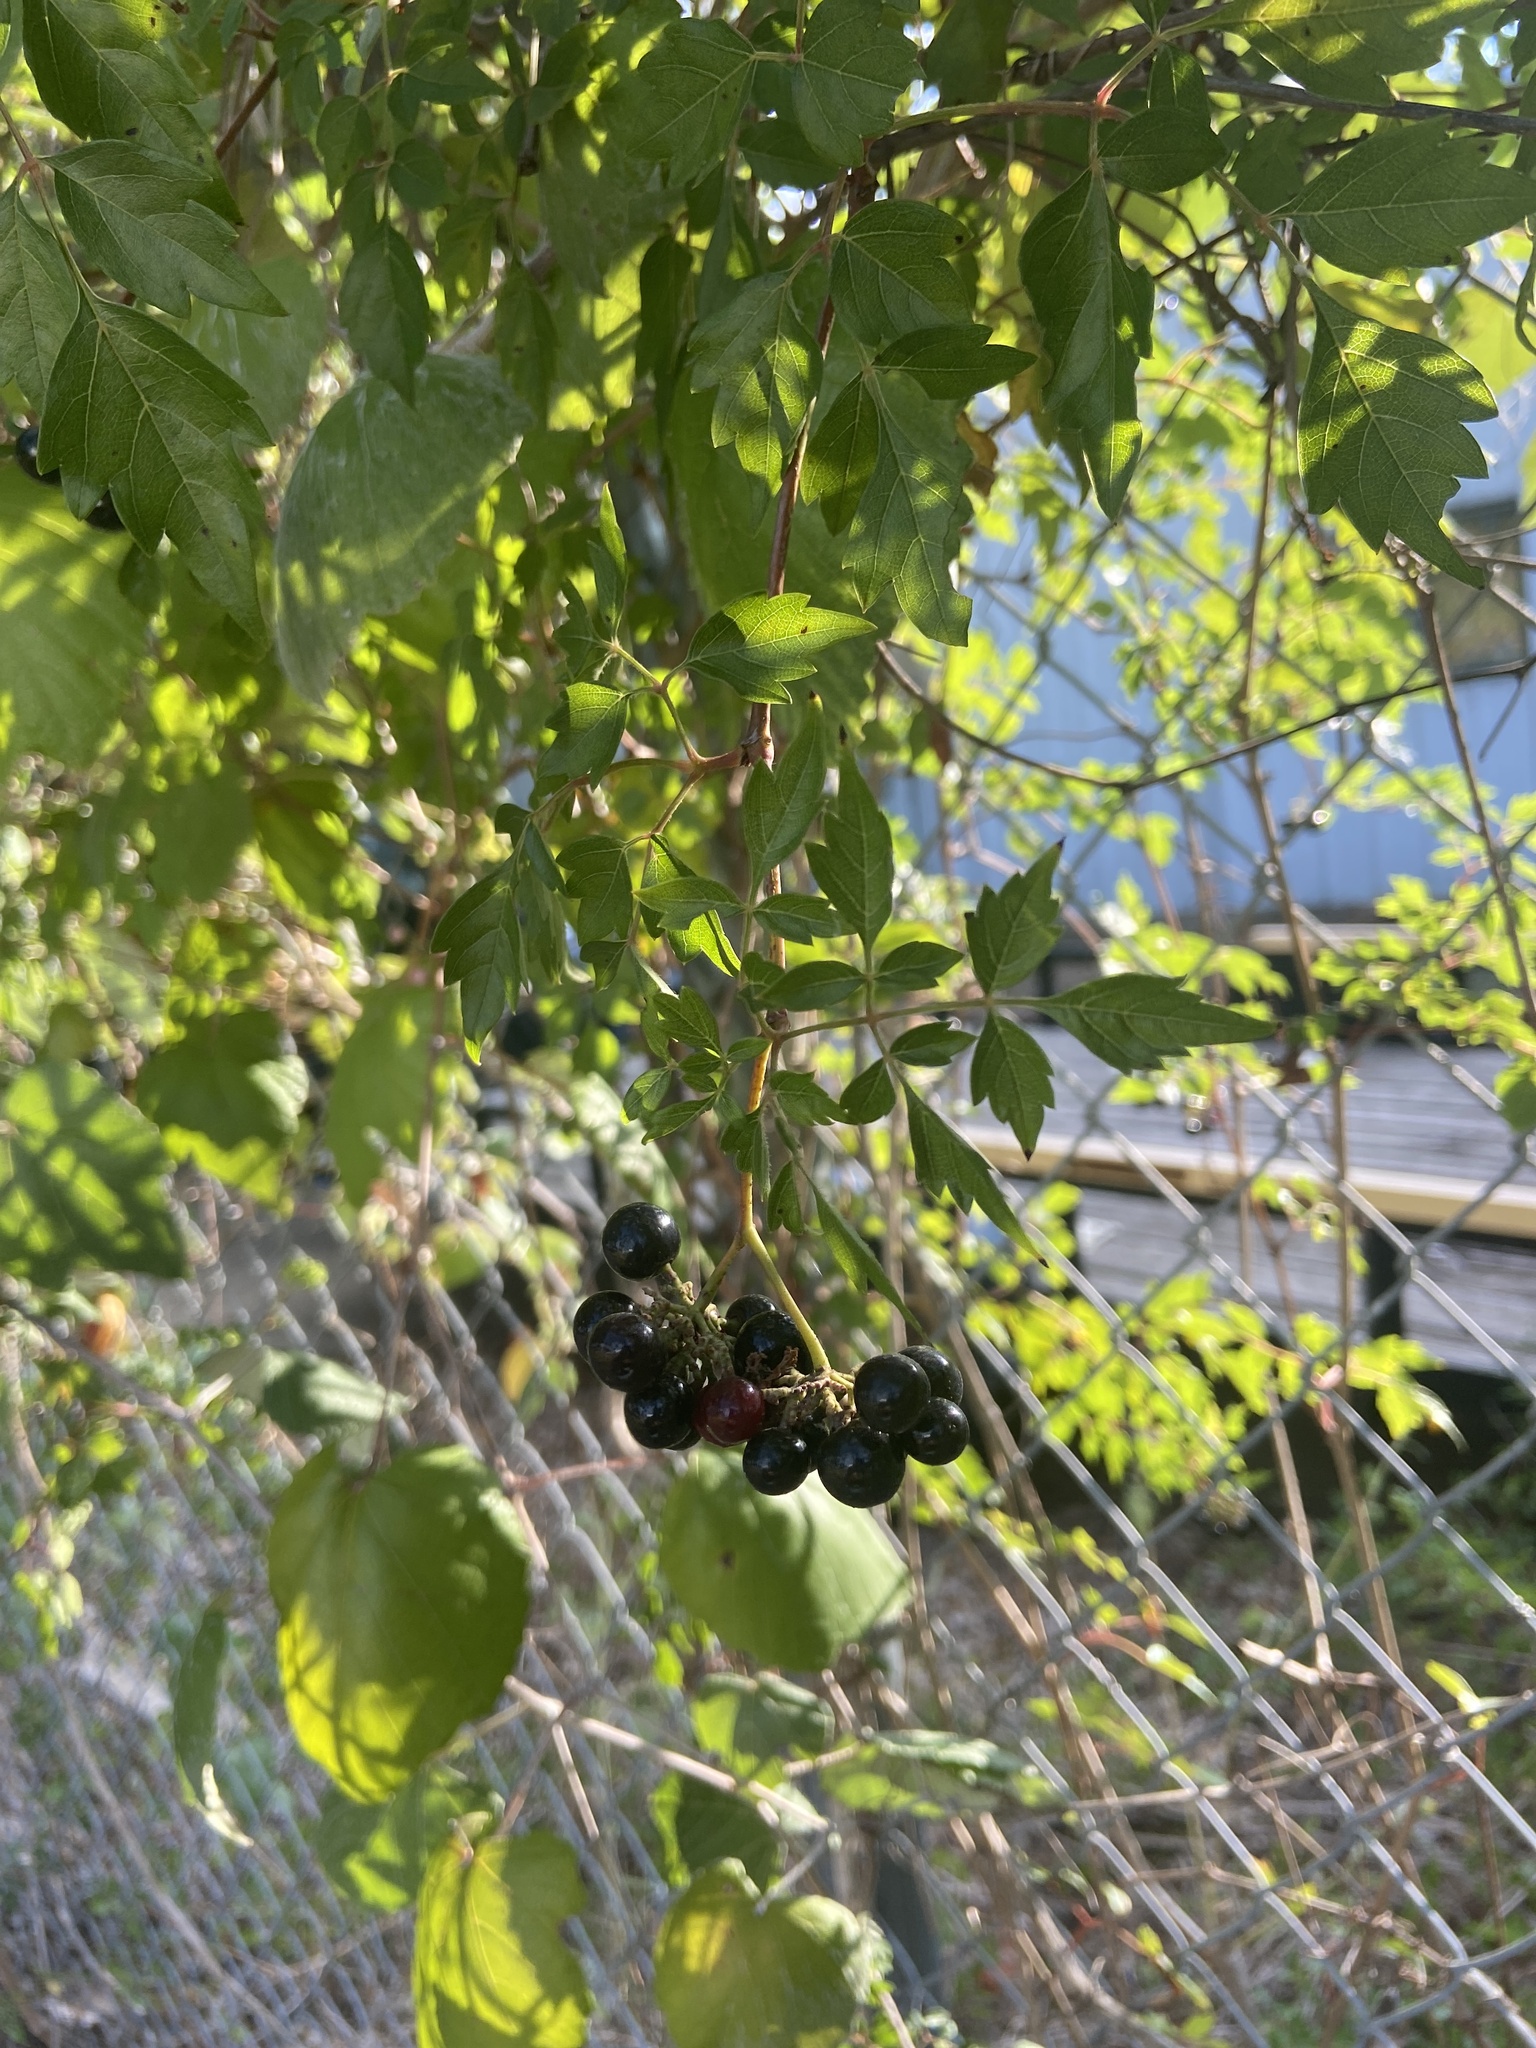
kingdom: Plantae
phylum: Tracheophyta
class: Magnoliopsida
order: Vitales
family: Vitaceae
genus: Nekemias
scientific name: Nekemias arborea
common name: Peppervine
